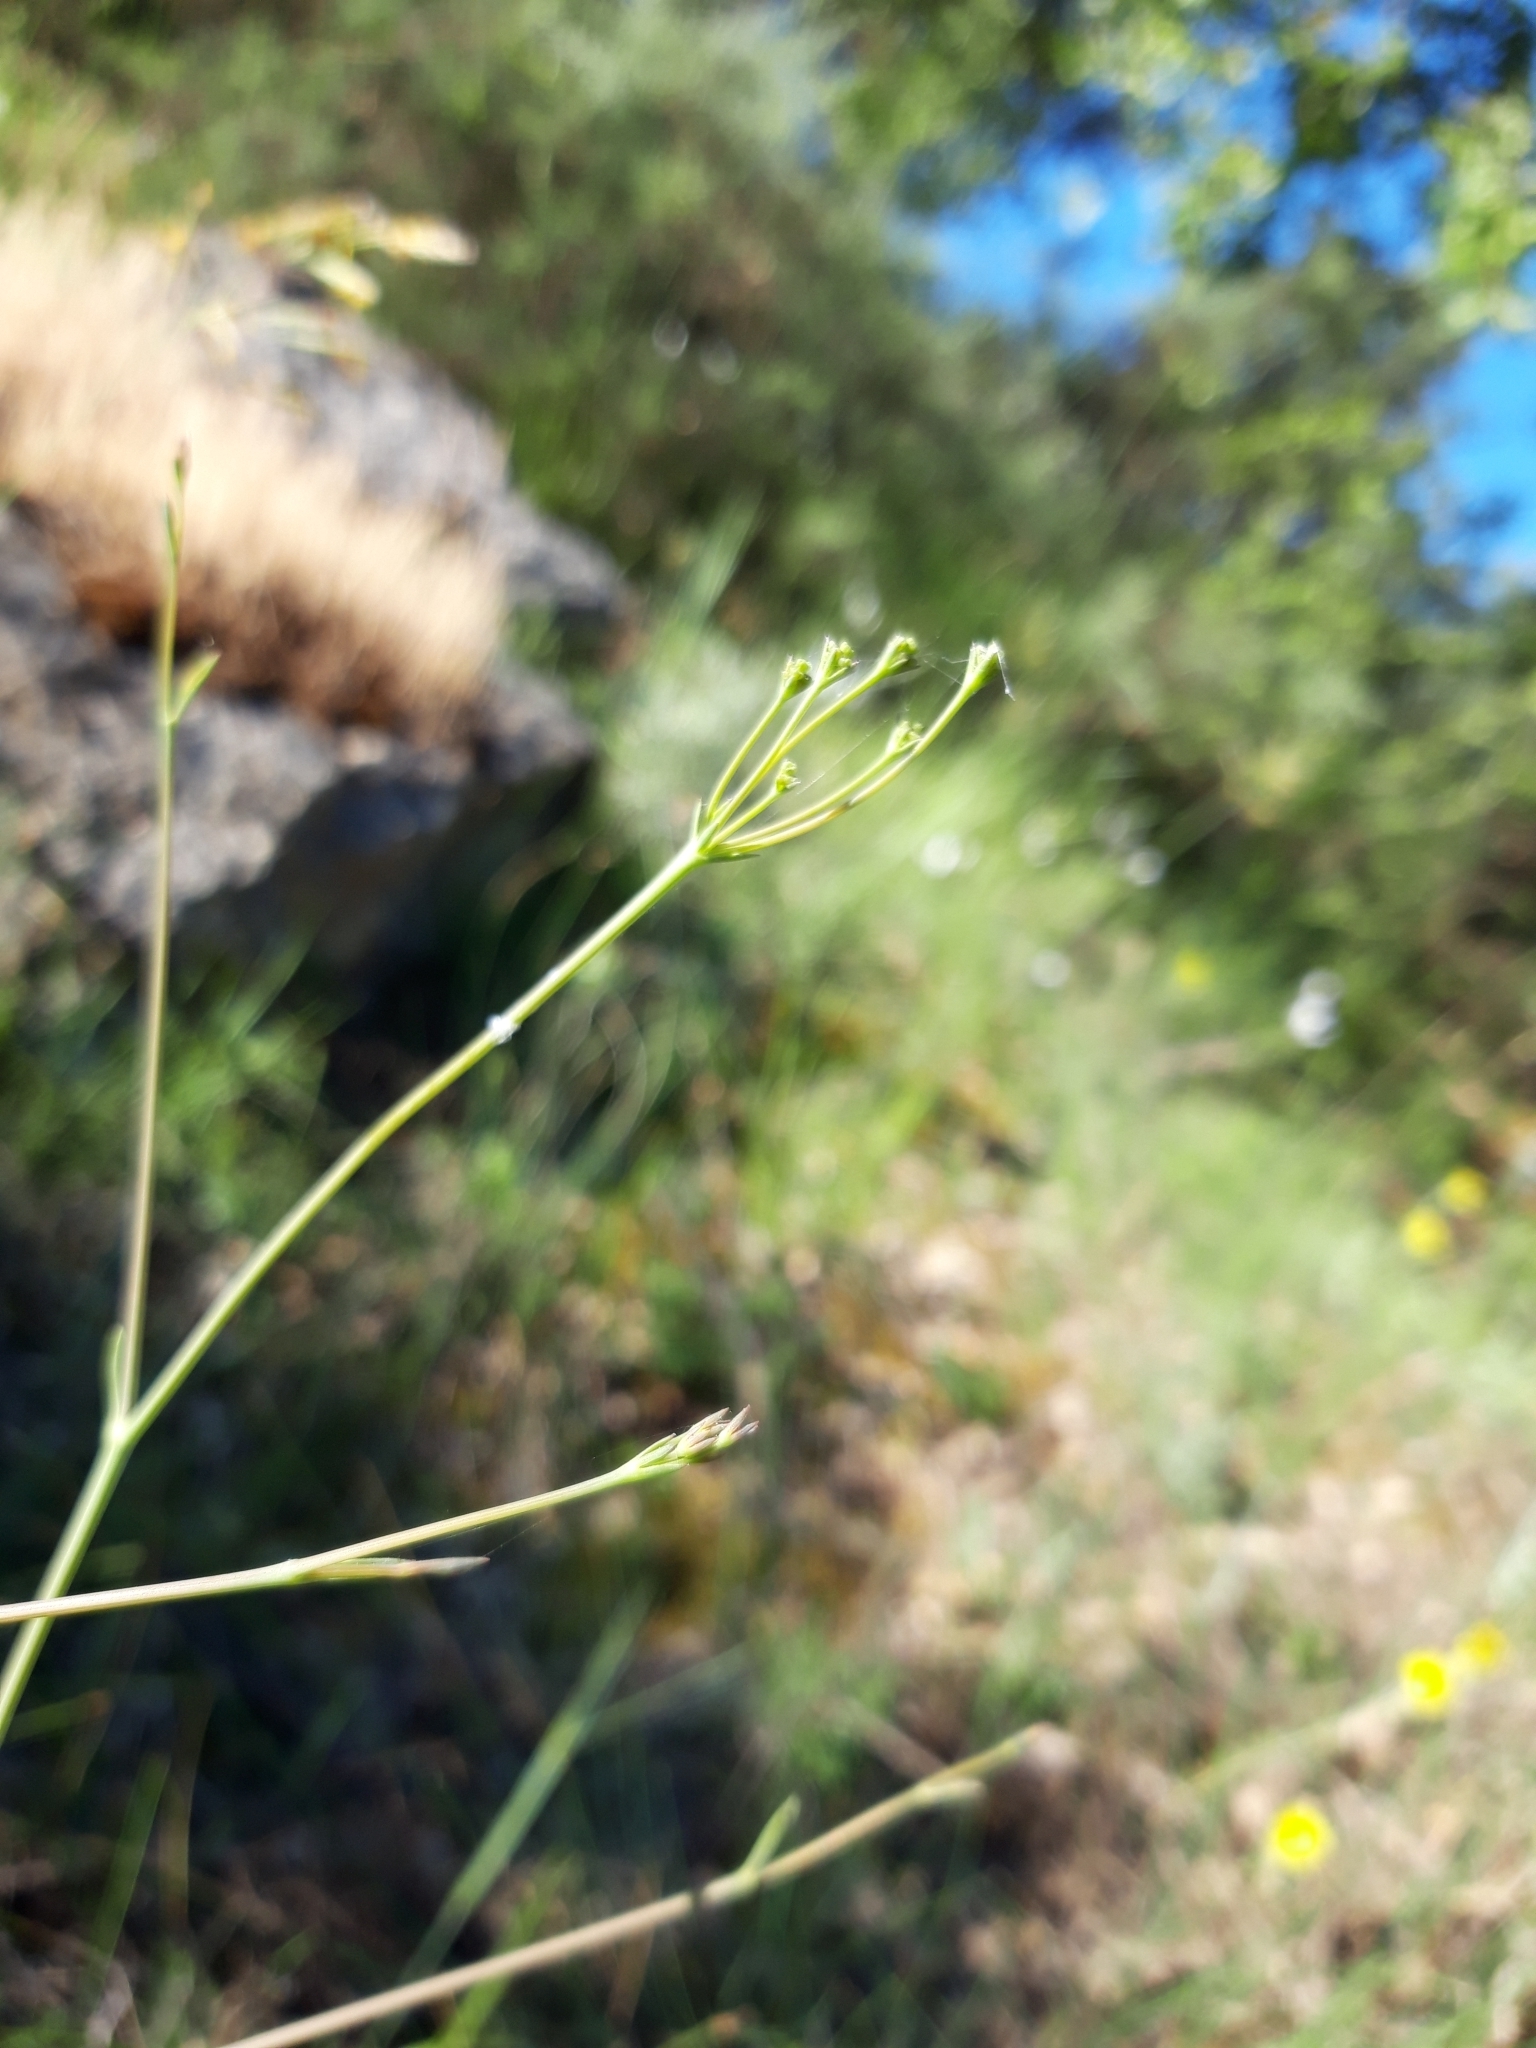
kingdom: Plantae
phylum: Tracheophyta
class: Magnoliopsida
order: Apiales
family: Apiaceae
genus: Bupleurum
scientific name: Bupleurum rigidum
